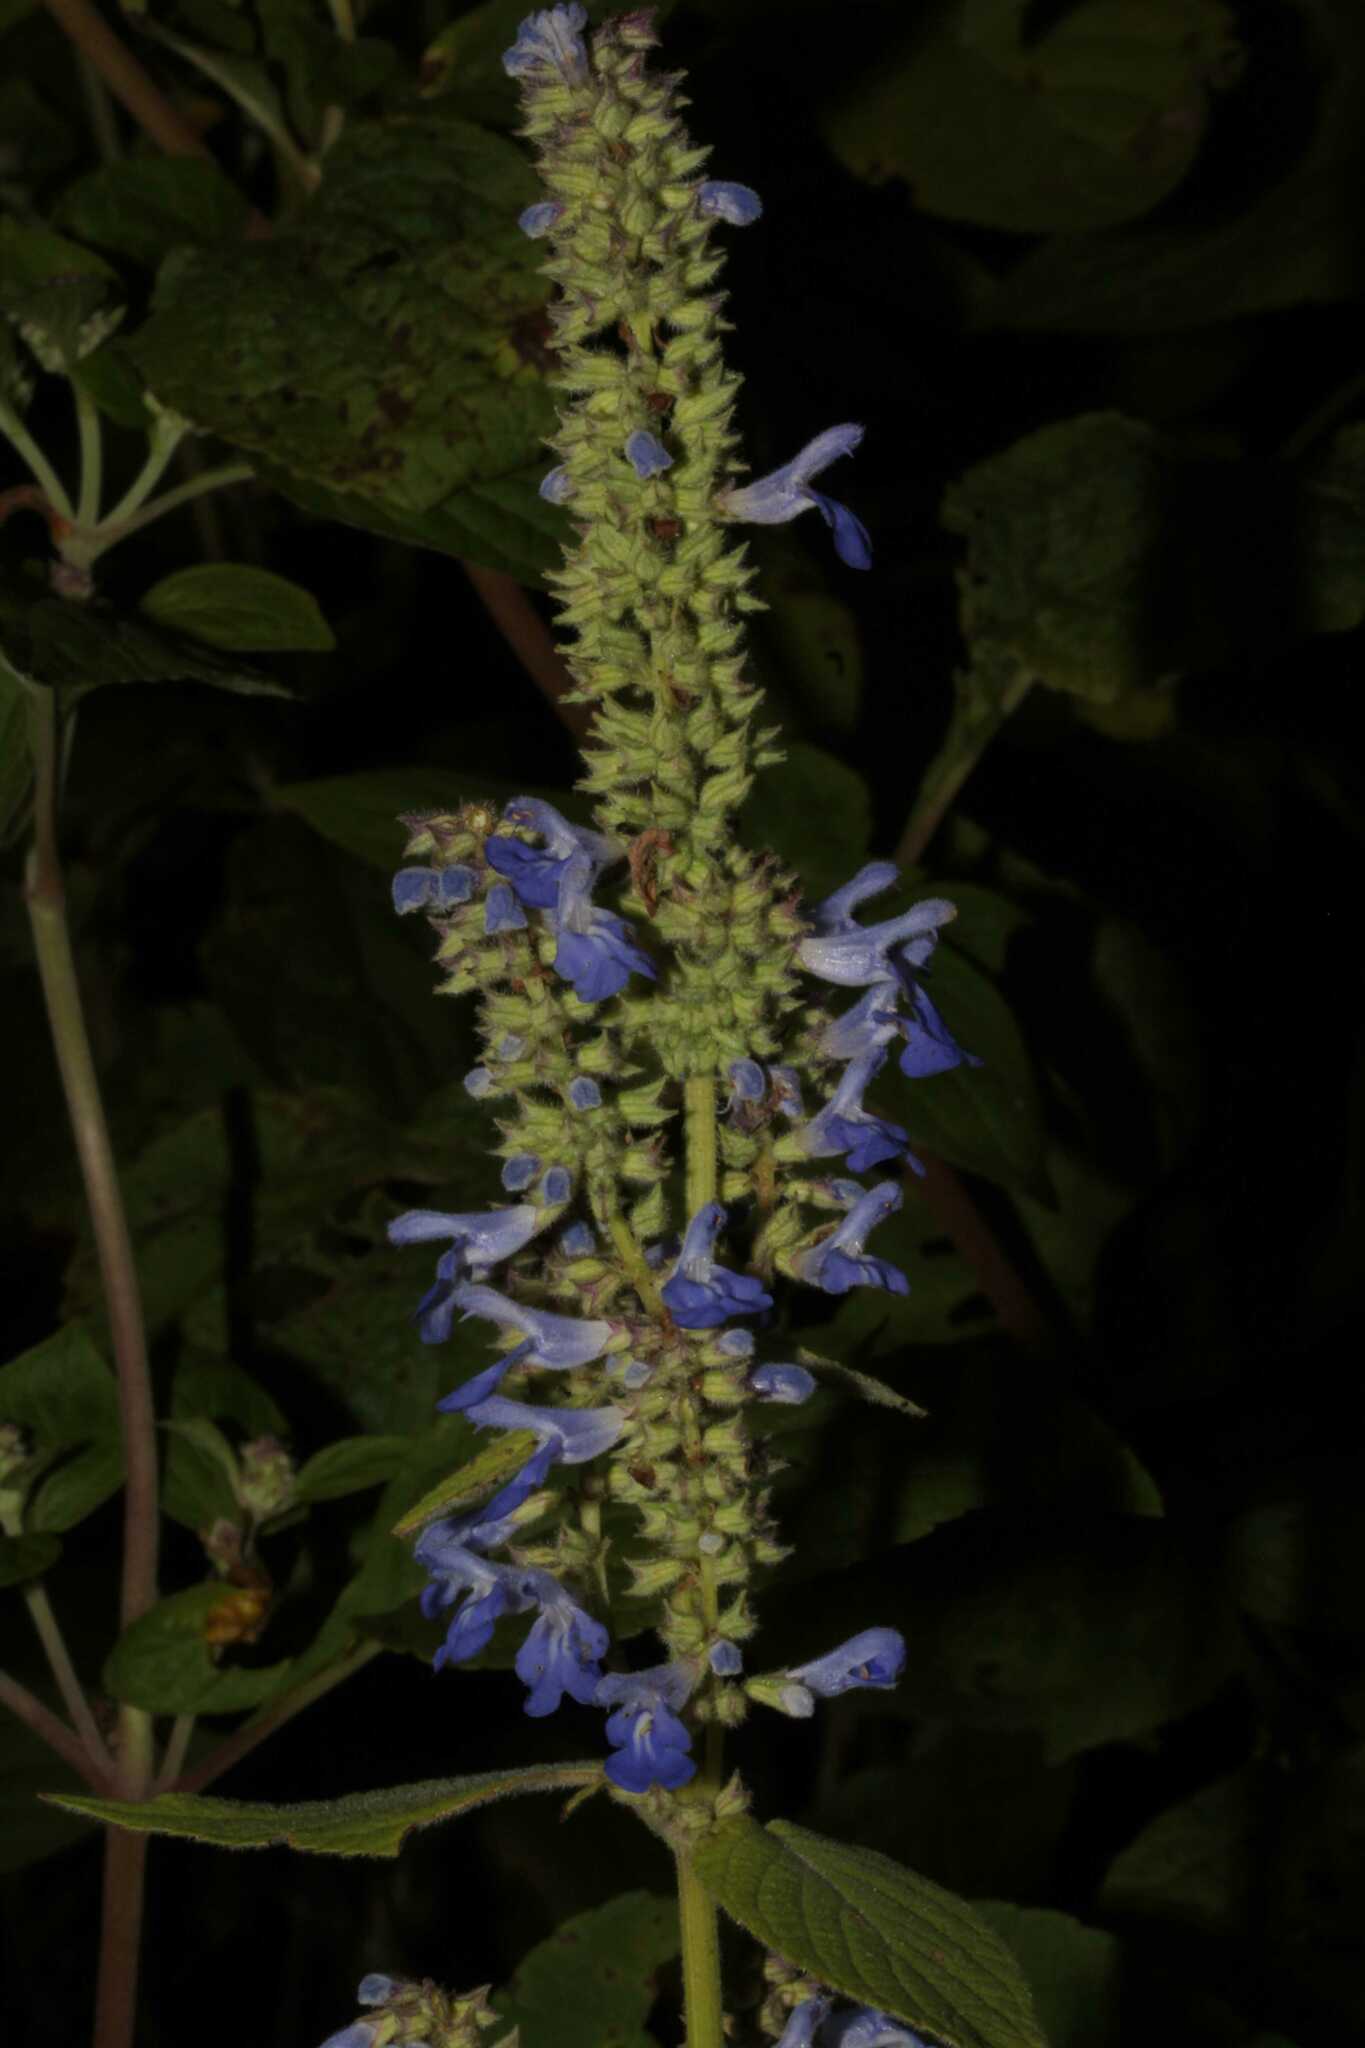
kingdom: Plantae
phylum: Tracheophyta
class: Magnoliopsida
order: Lamiales
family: Lamiaceae
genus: Salvia
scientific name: Salvia polystachia
